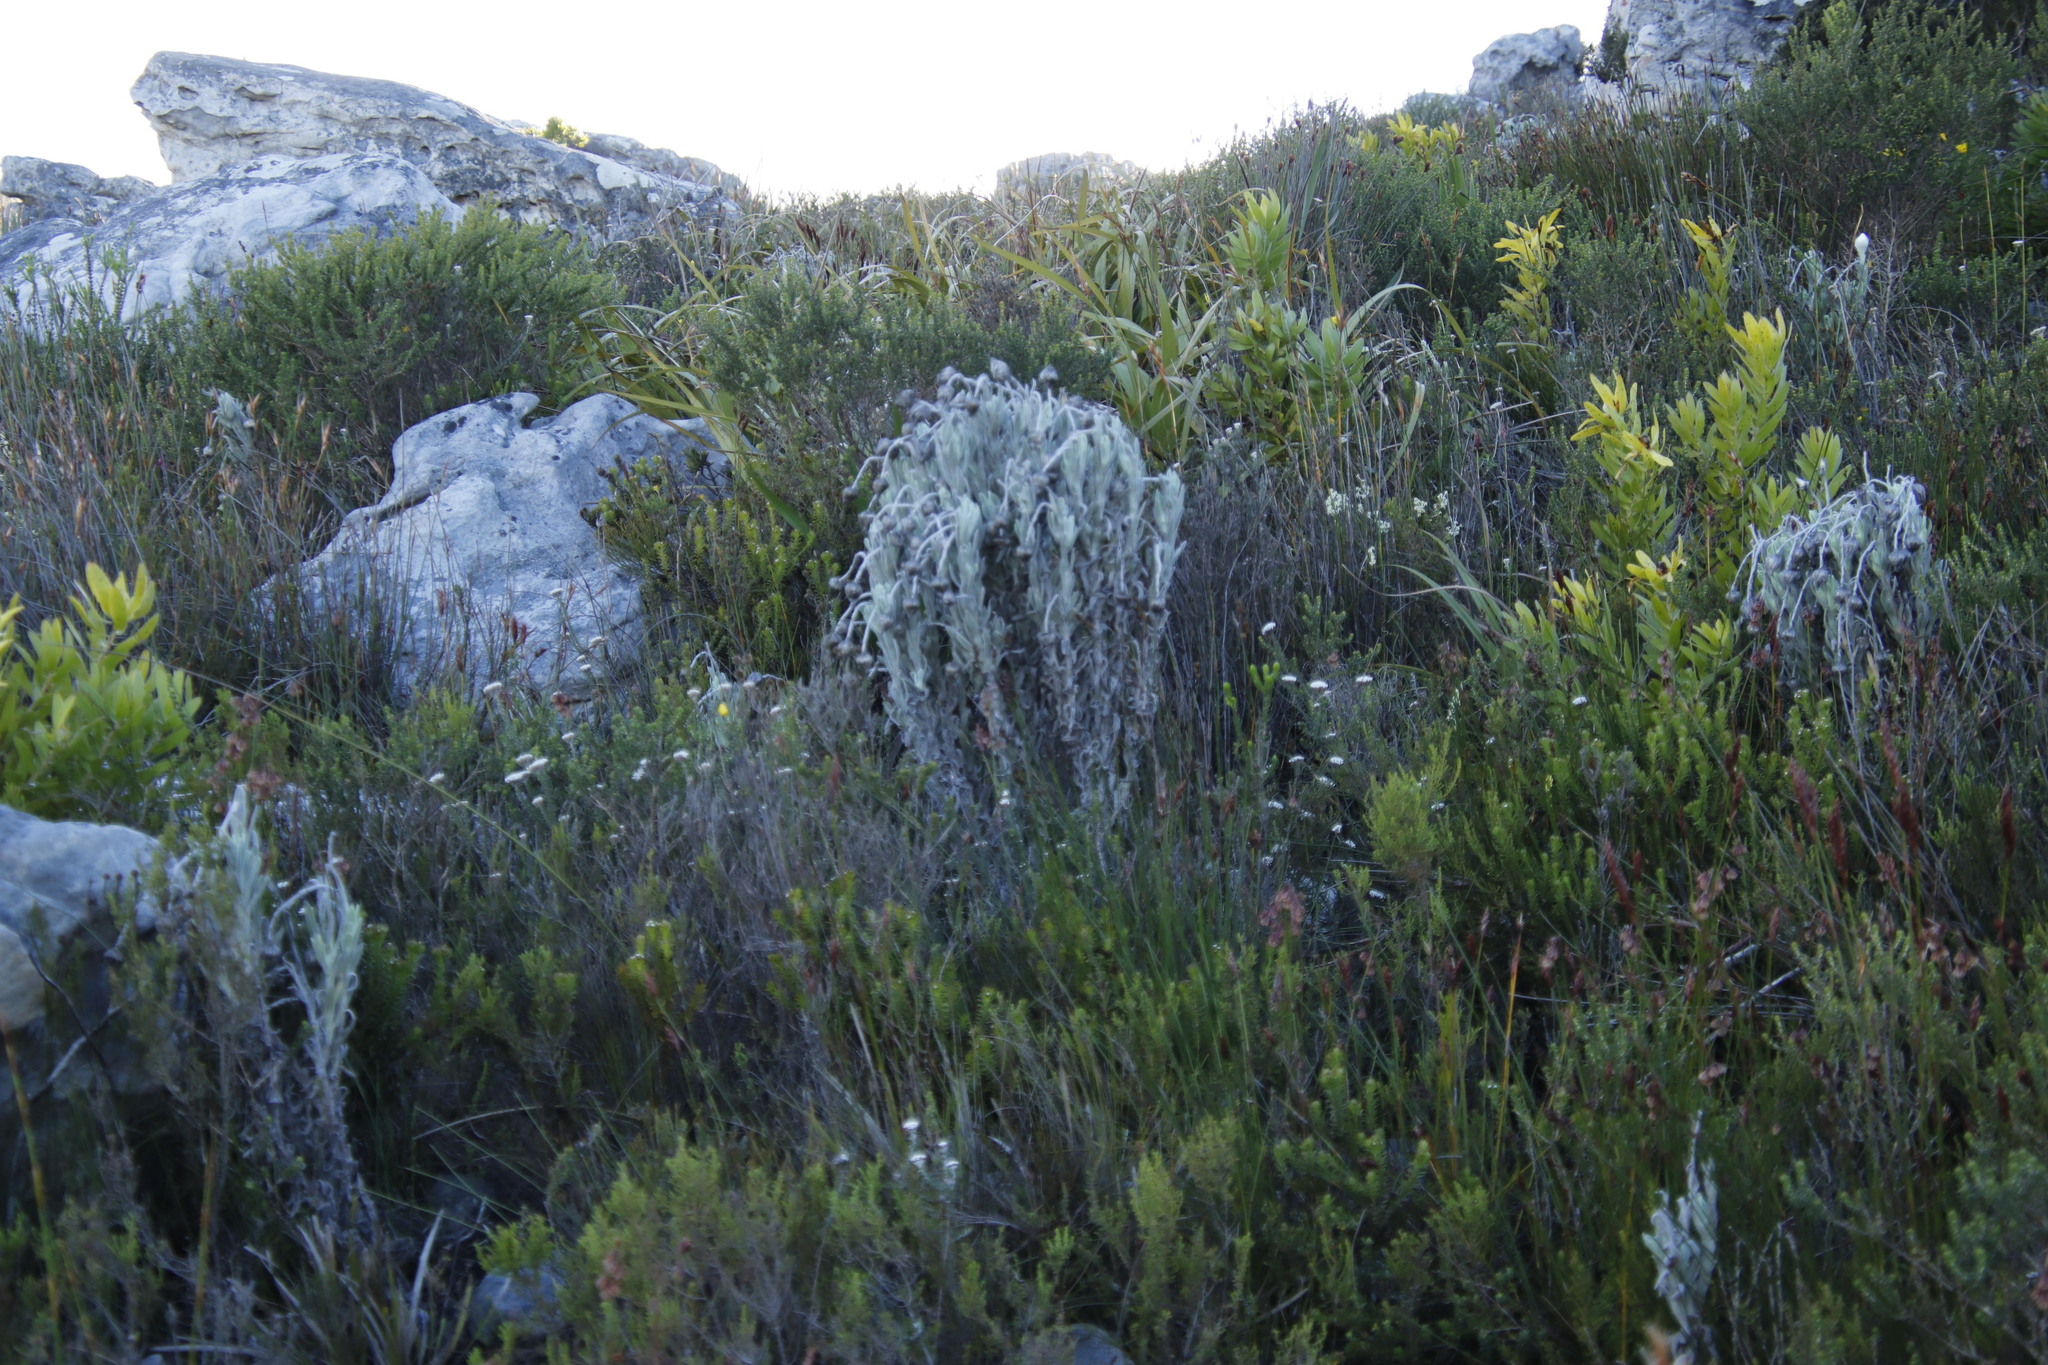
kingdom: Plantae
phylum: Tracheophyta
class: Magnoliopsida
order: Asterales
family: Asteraceae
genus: Syncarpha
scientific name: Syncarpha vestita
